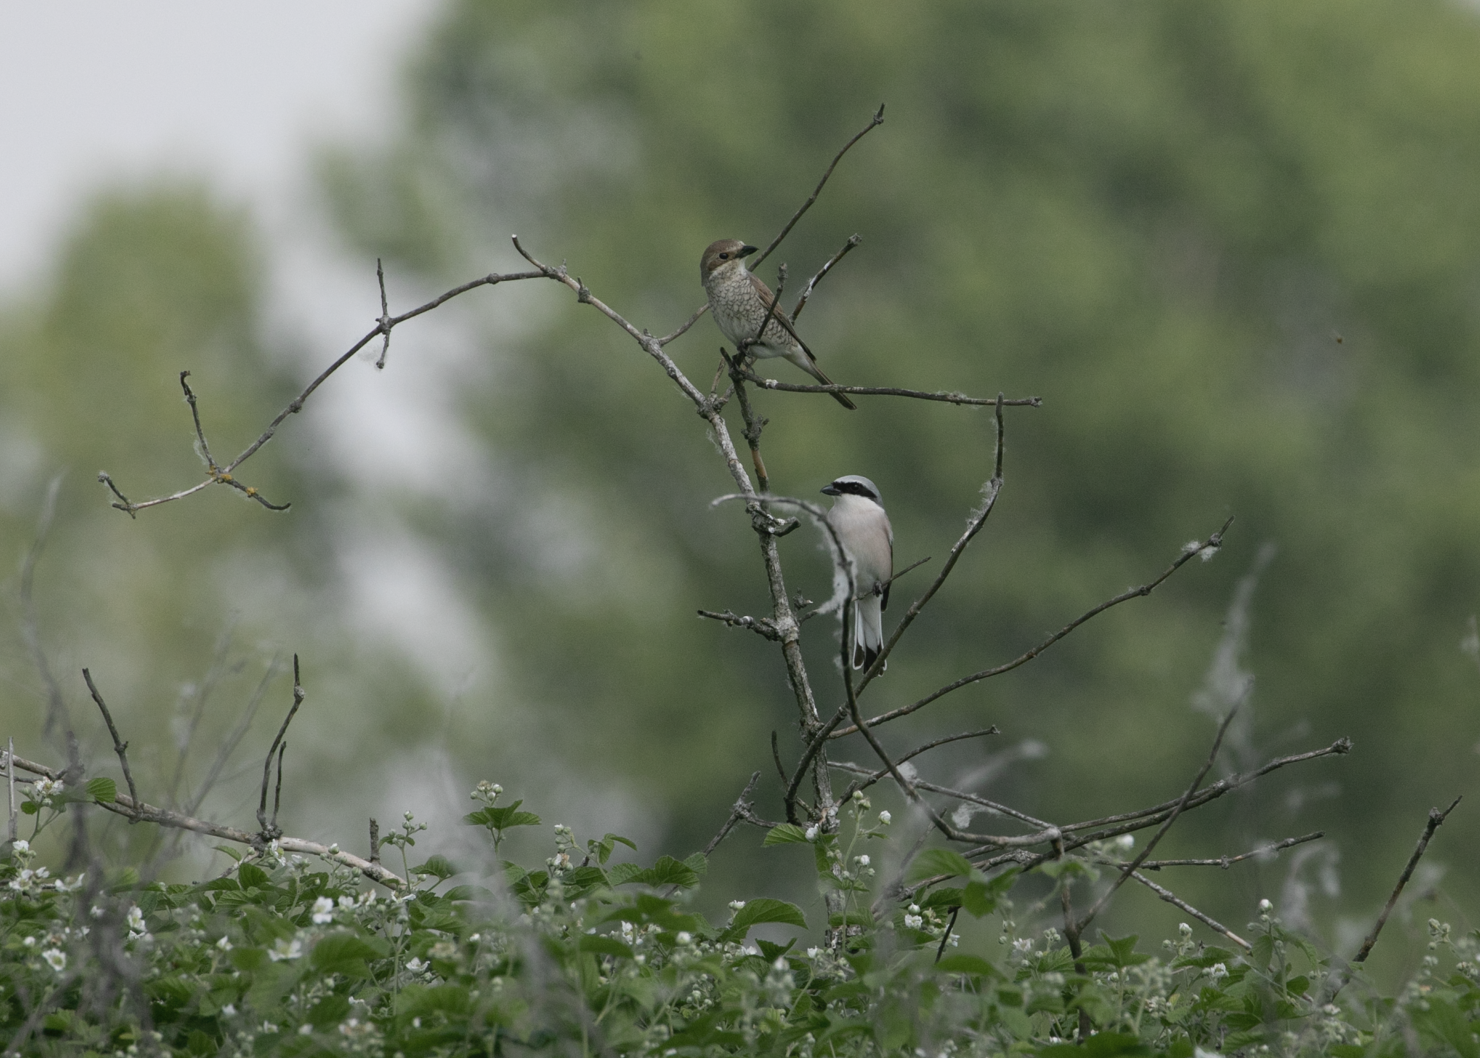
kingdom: Animalia
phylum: Chordata
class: Aves
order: Passeriformes
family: Laniidae
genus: Lanius
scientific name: Lanius collurio
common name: Red-backed shrike
